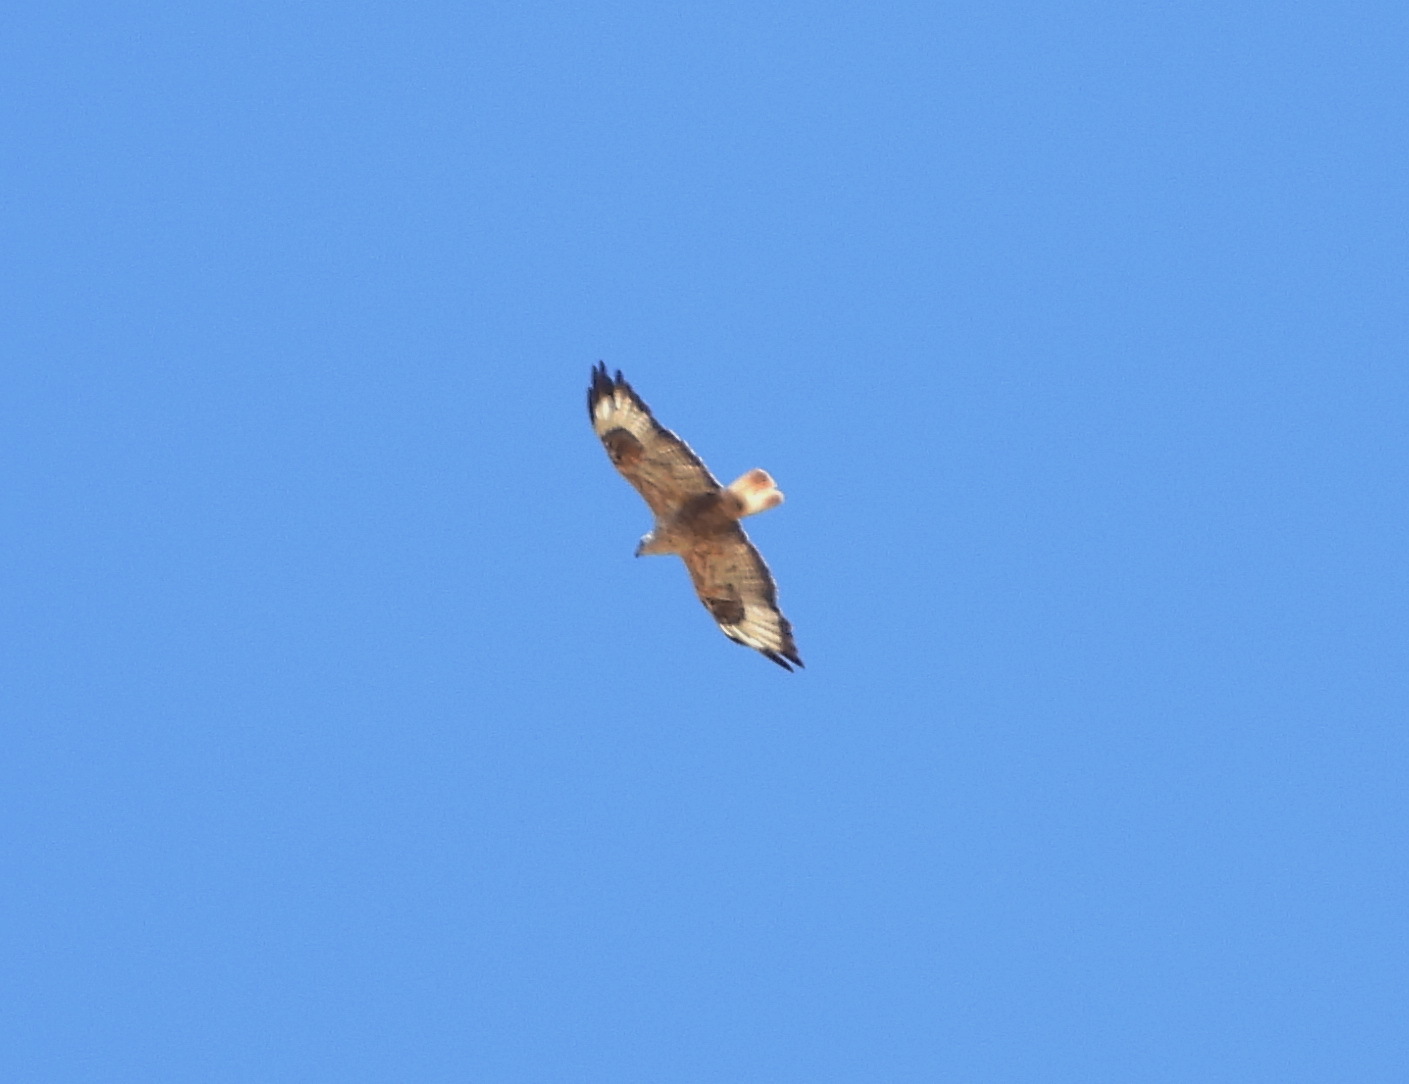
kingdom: Animalia
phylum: Chordata
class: Aves
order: Accipitriformes
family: Accipitridae
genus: Buteo
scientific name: Buteo rufinus
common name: Long-legged buzzard
